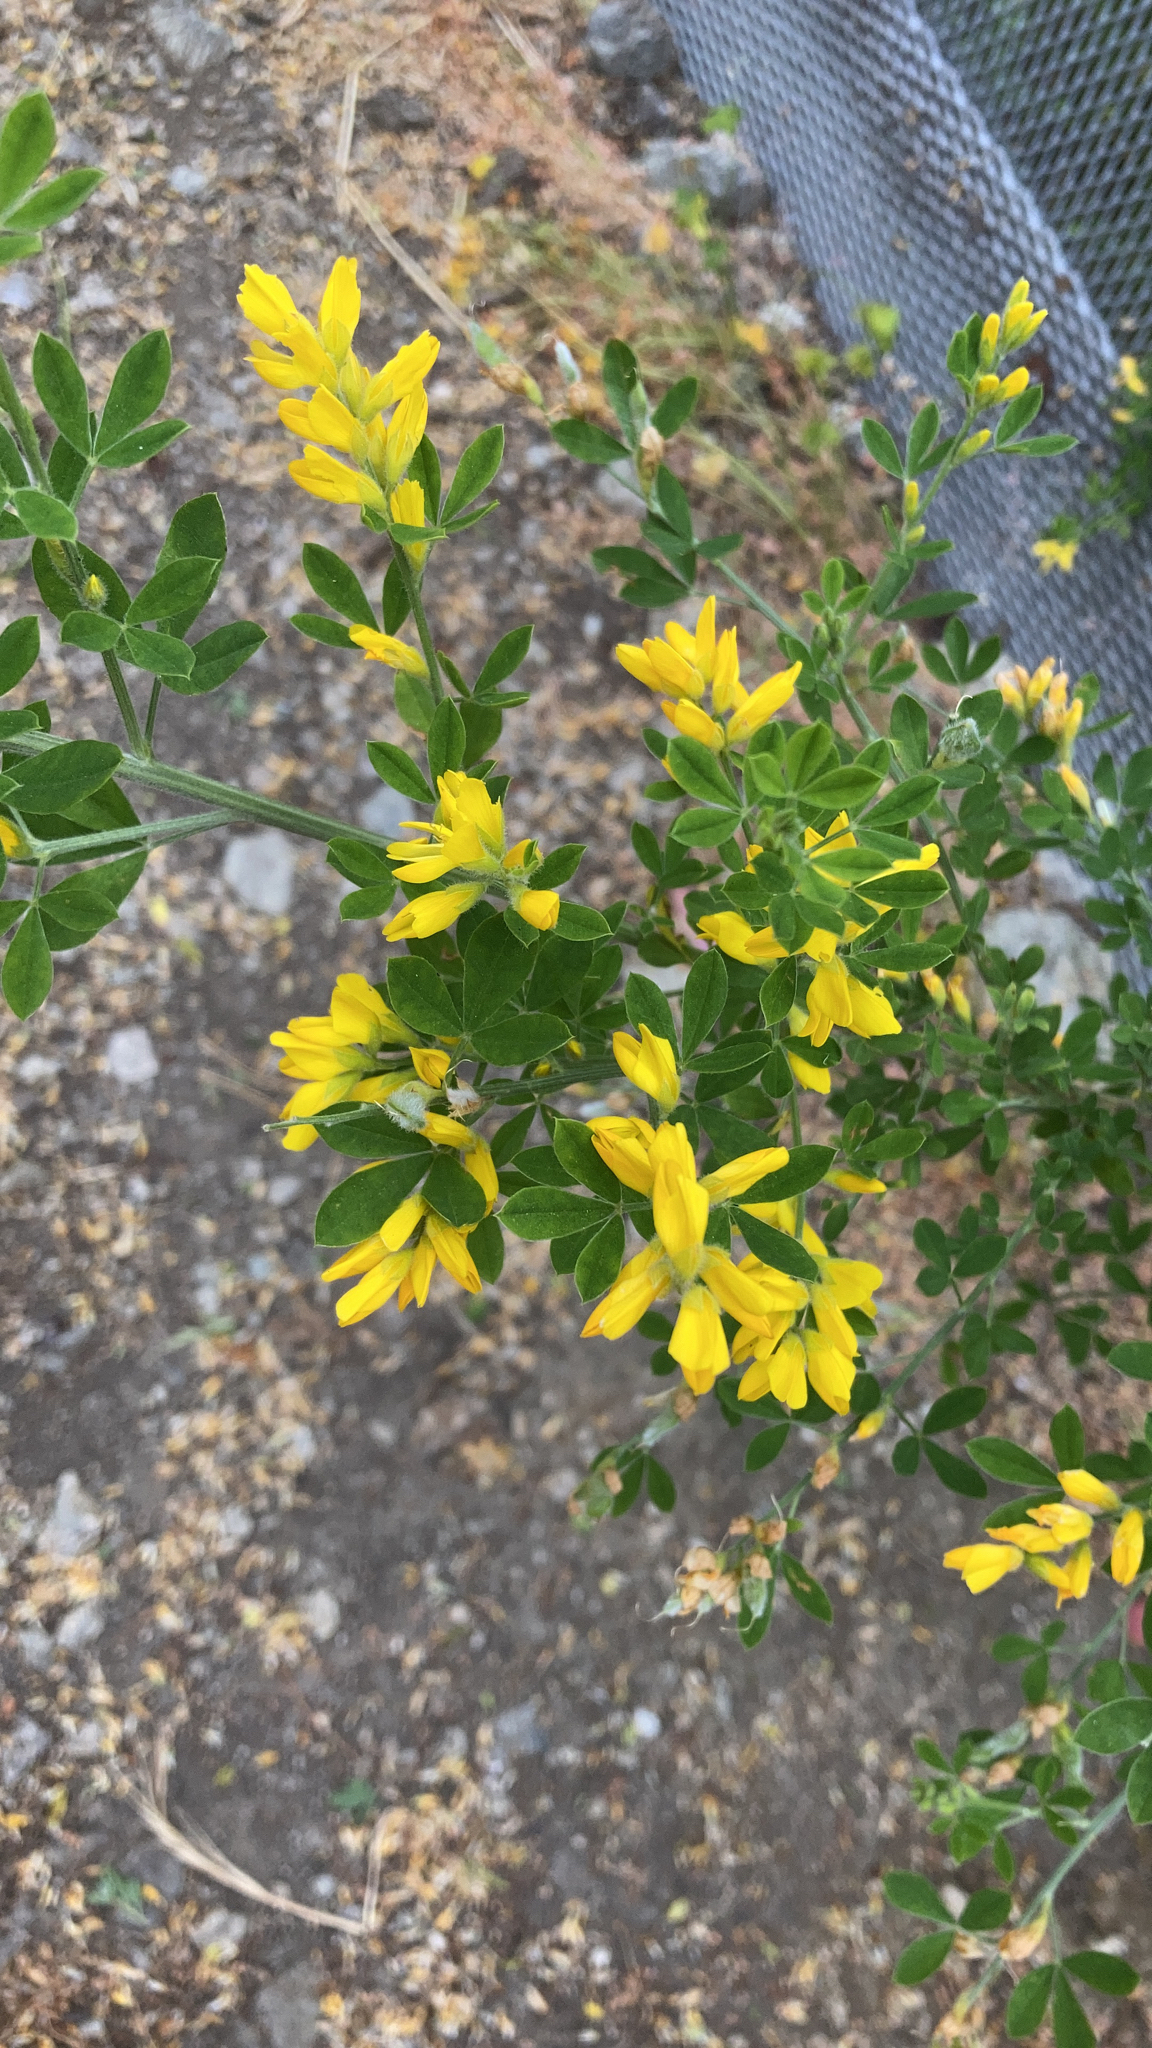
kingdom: Plantae
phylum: Tracheophyta
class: Magnoliopsida
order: Fabales
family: Fabaceae
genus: Genista
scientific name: Genista monspessulana
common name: Montpellier broom
